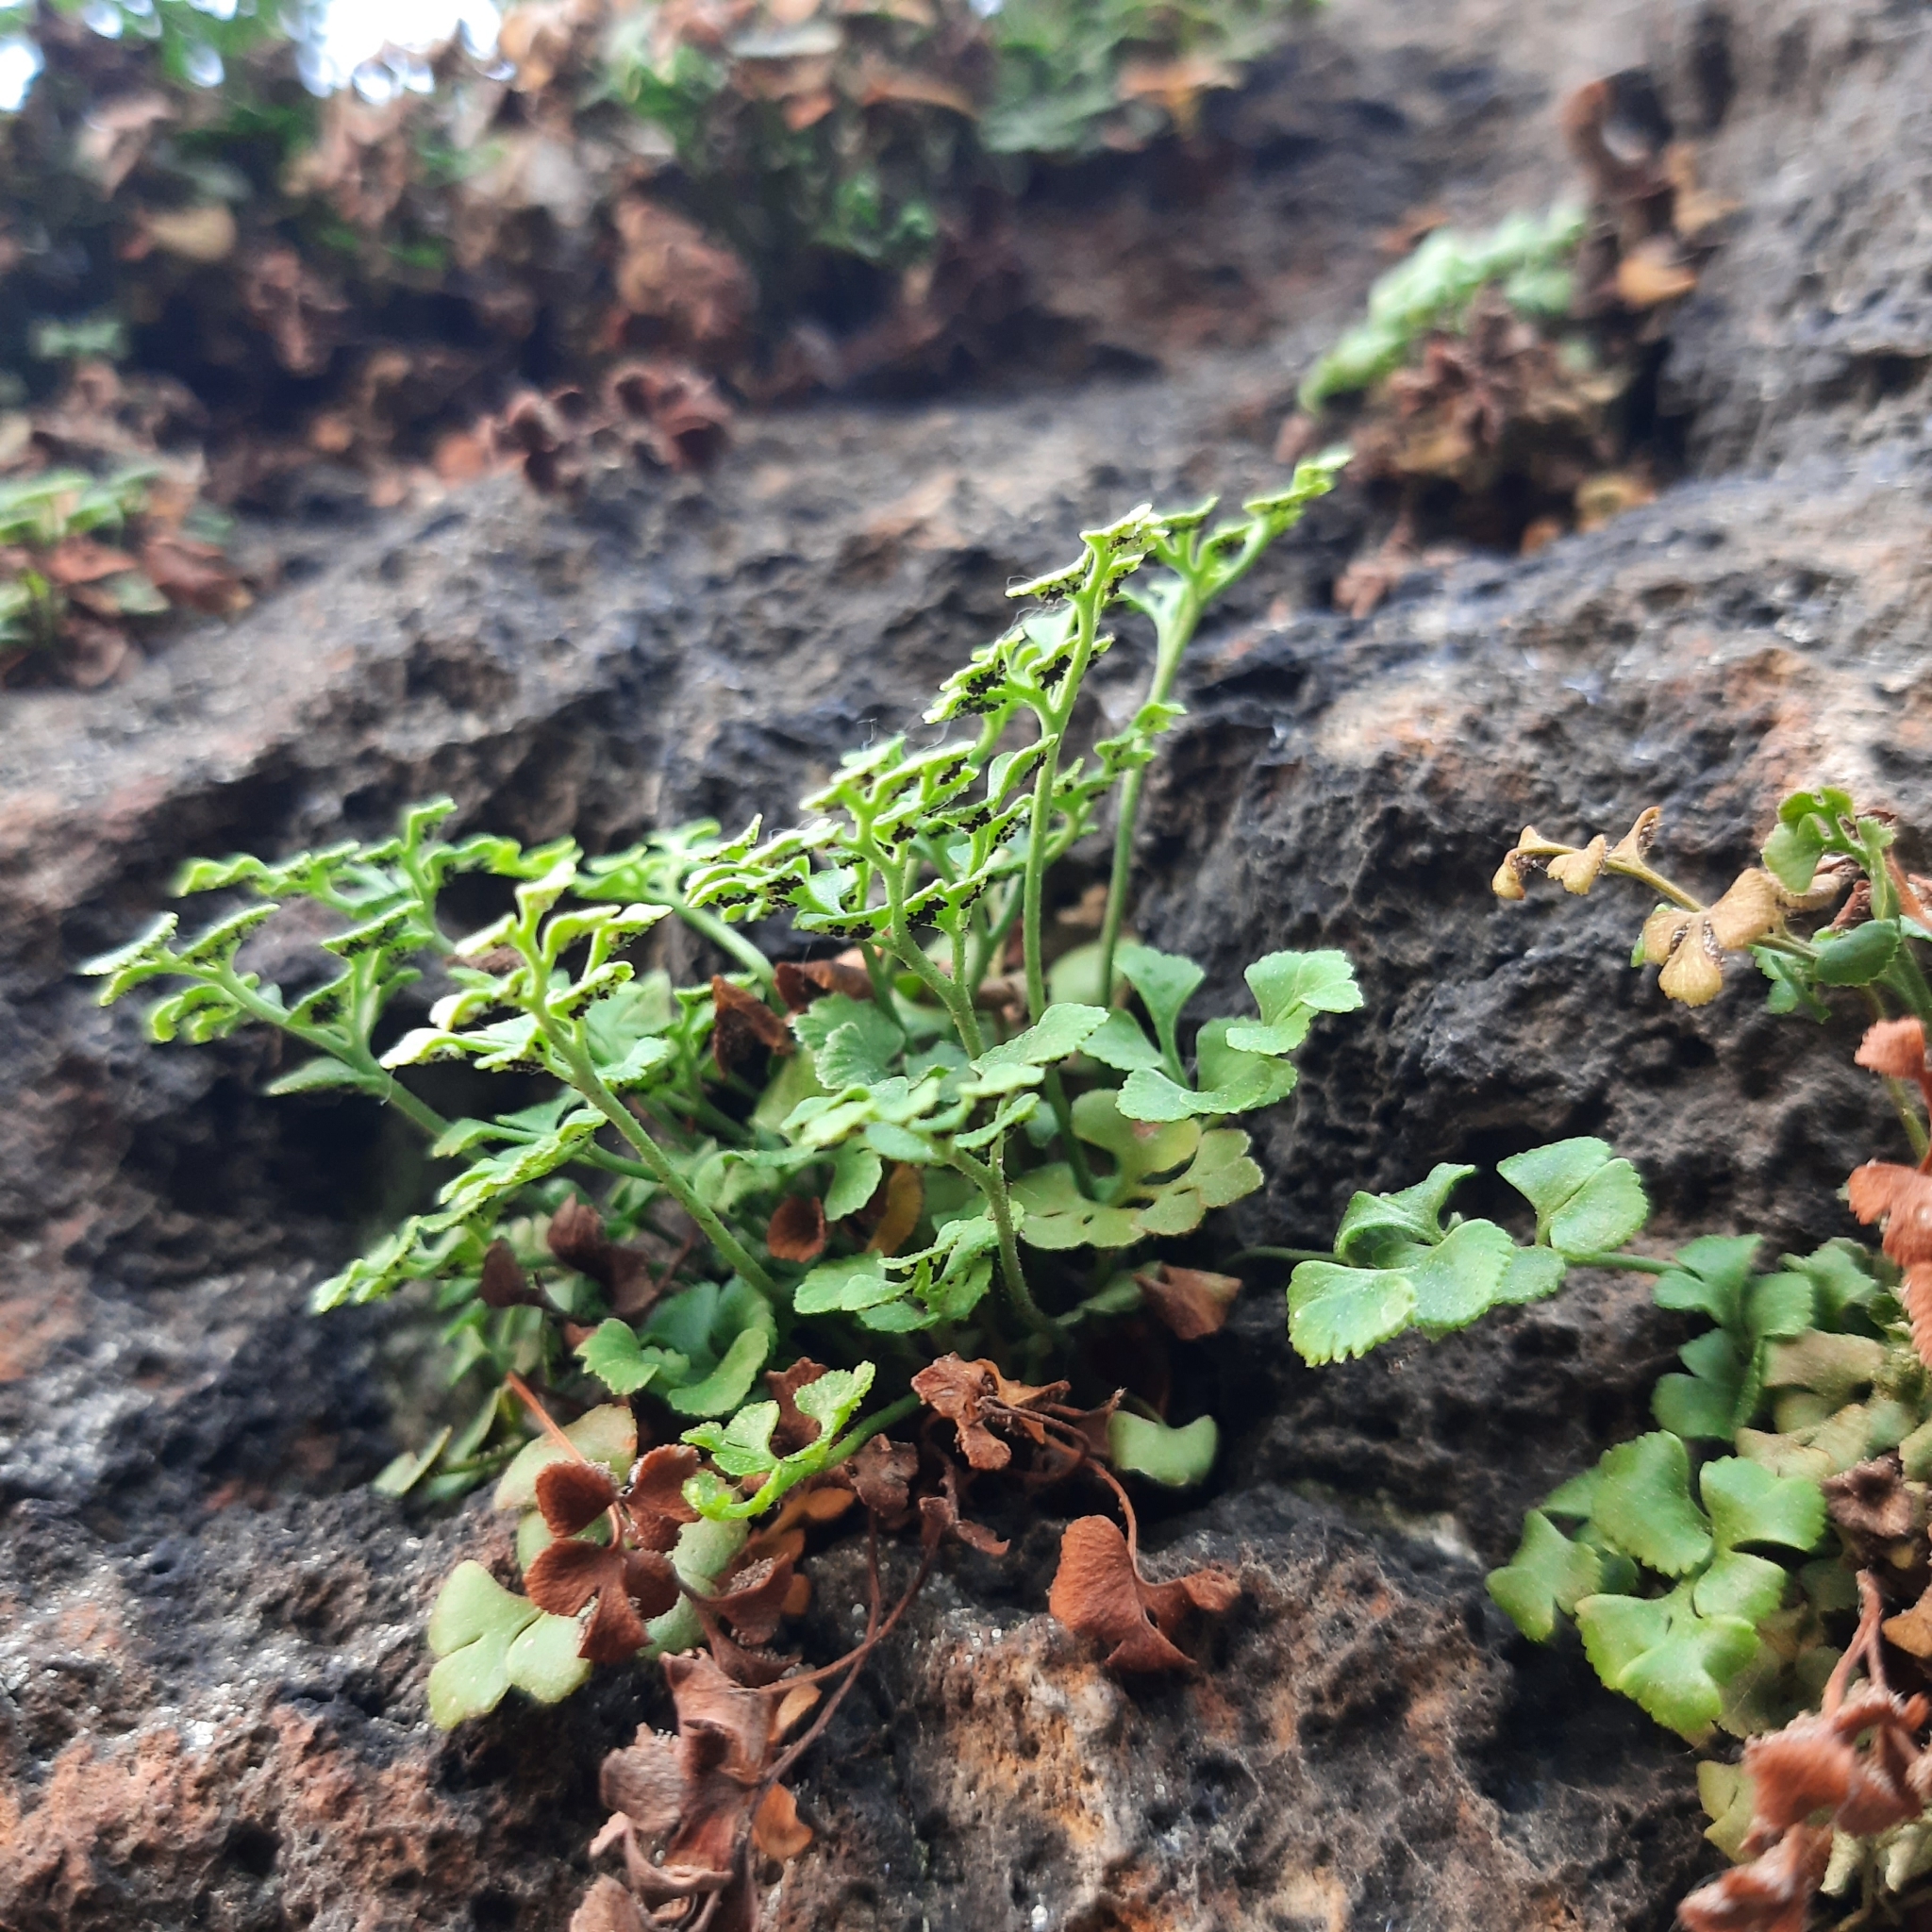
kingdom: Plantae
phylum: Tracheophyta
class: Polypodiopsida
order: Polypodiales
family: Aspleniaceae
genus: Asplenium
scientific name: Asplenium ruta-muraria
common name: Wall-rue
